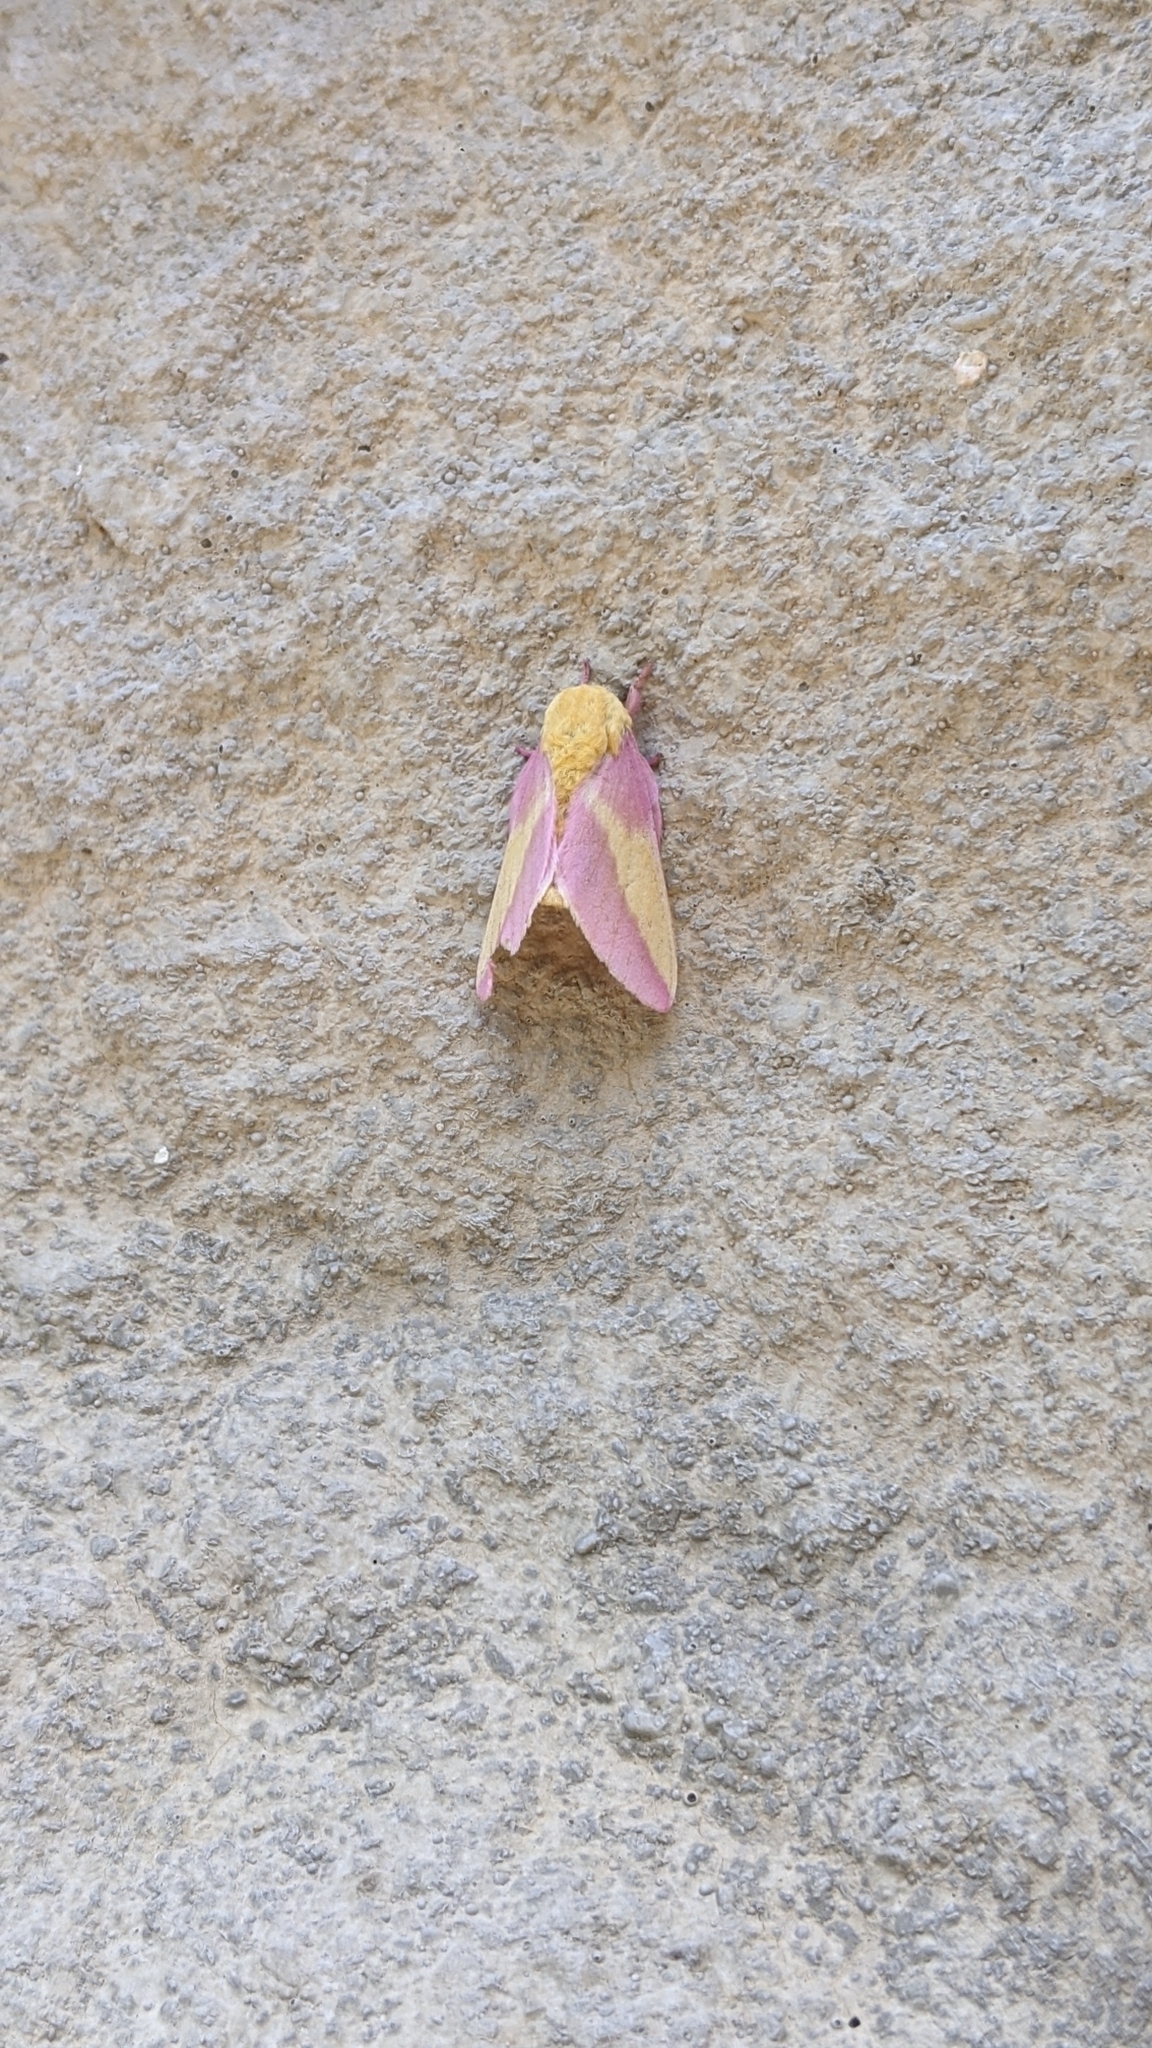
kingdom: Animalia
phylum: Arthropoda
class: Insecta
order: Lepidoptera
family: Saturniidae
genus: Dryocampa
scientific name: Dryocampa rubicunda
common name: Rosy maple moth
